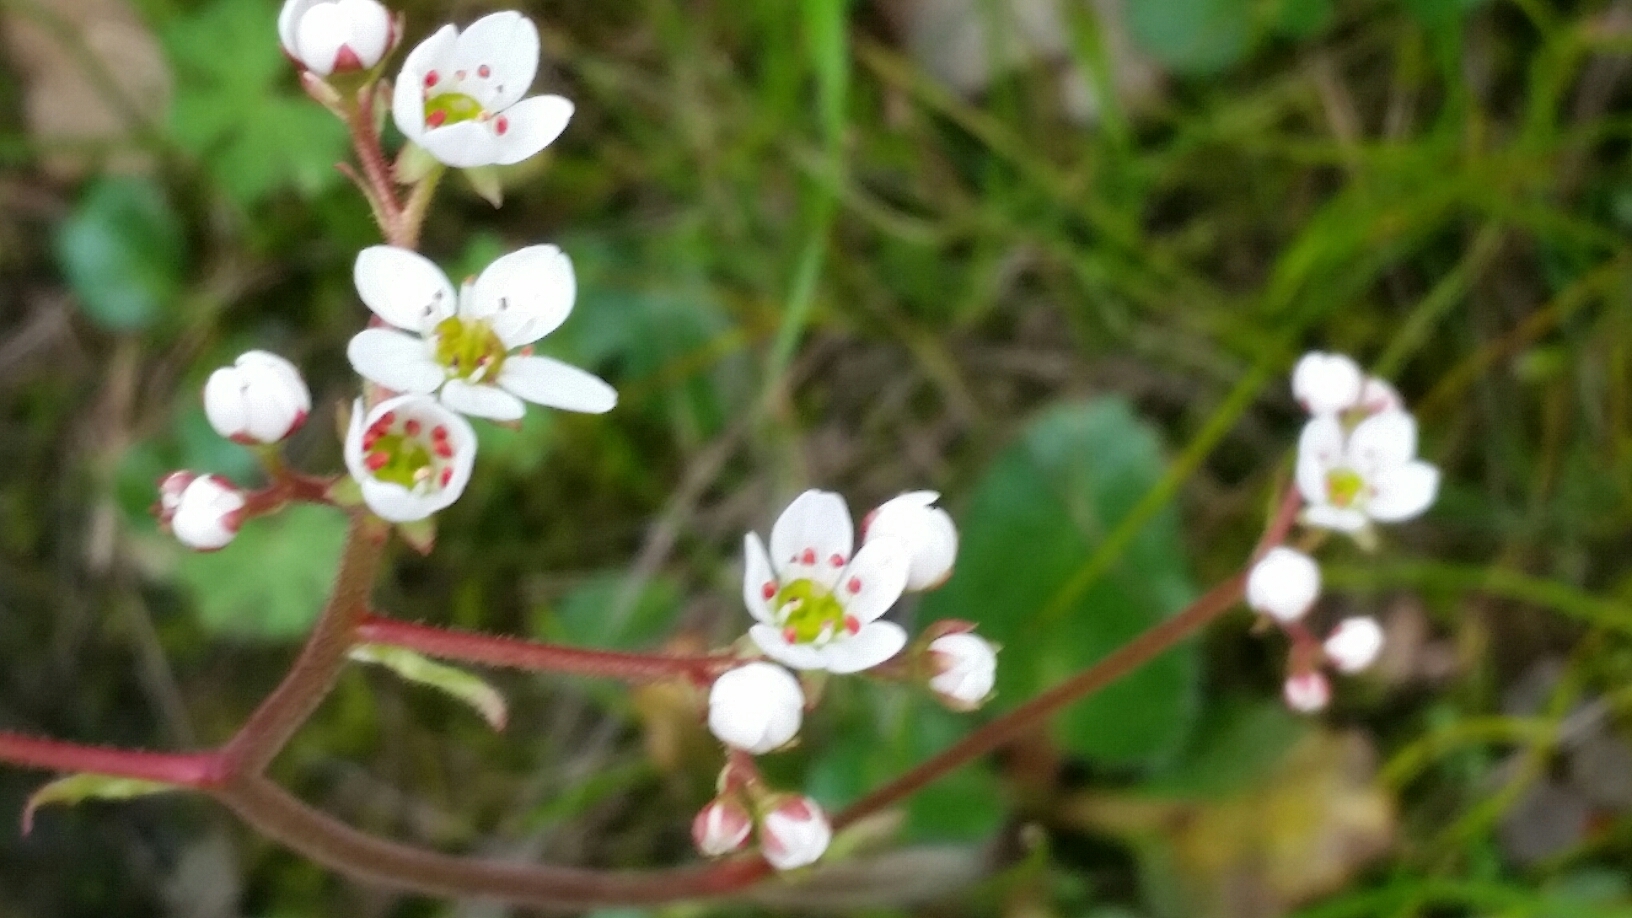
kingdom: Plantae
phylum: Tracheophyta
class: Magnoliopsida
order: Saxifragales
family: Saxifragaceae
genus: Micranthes
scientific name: Micranthes californica
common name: California saxifrage
